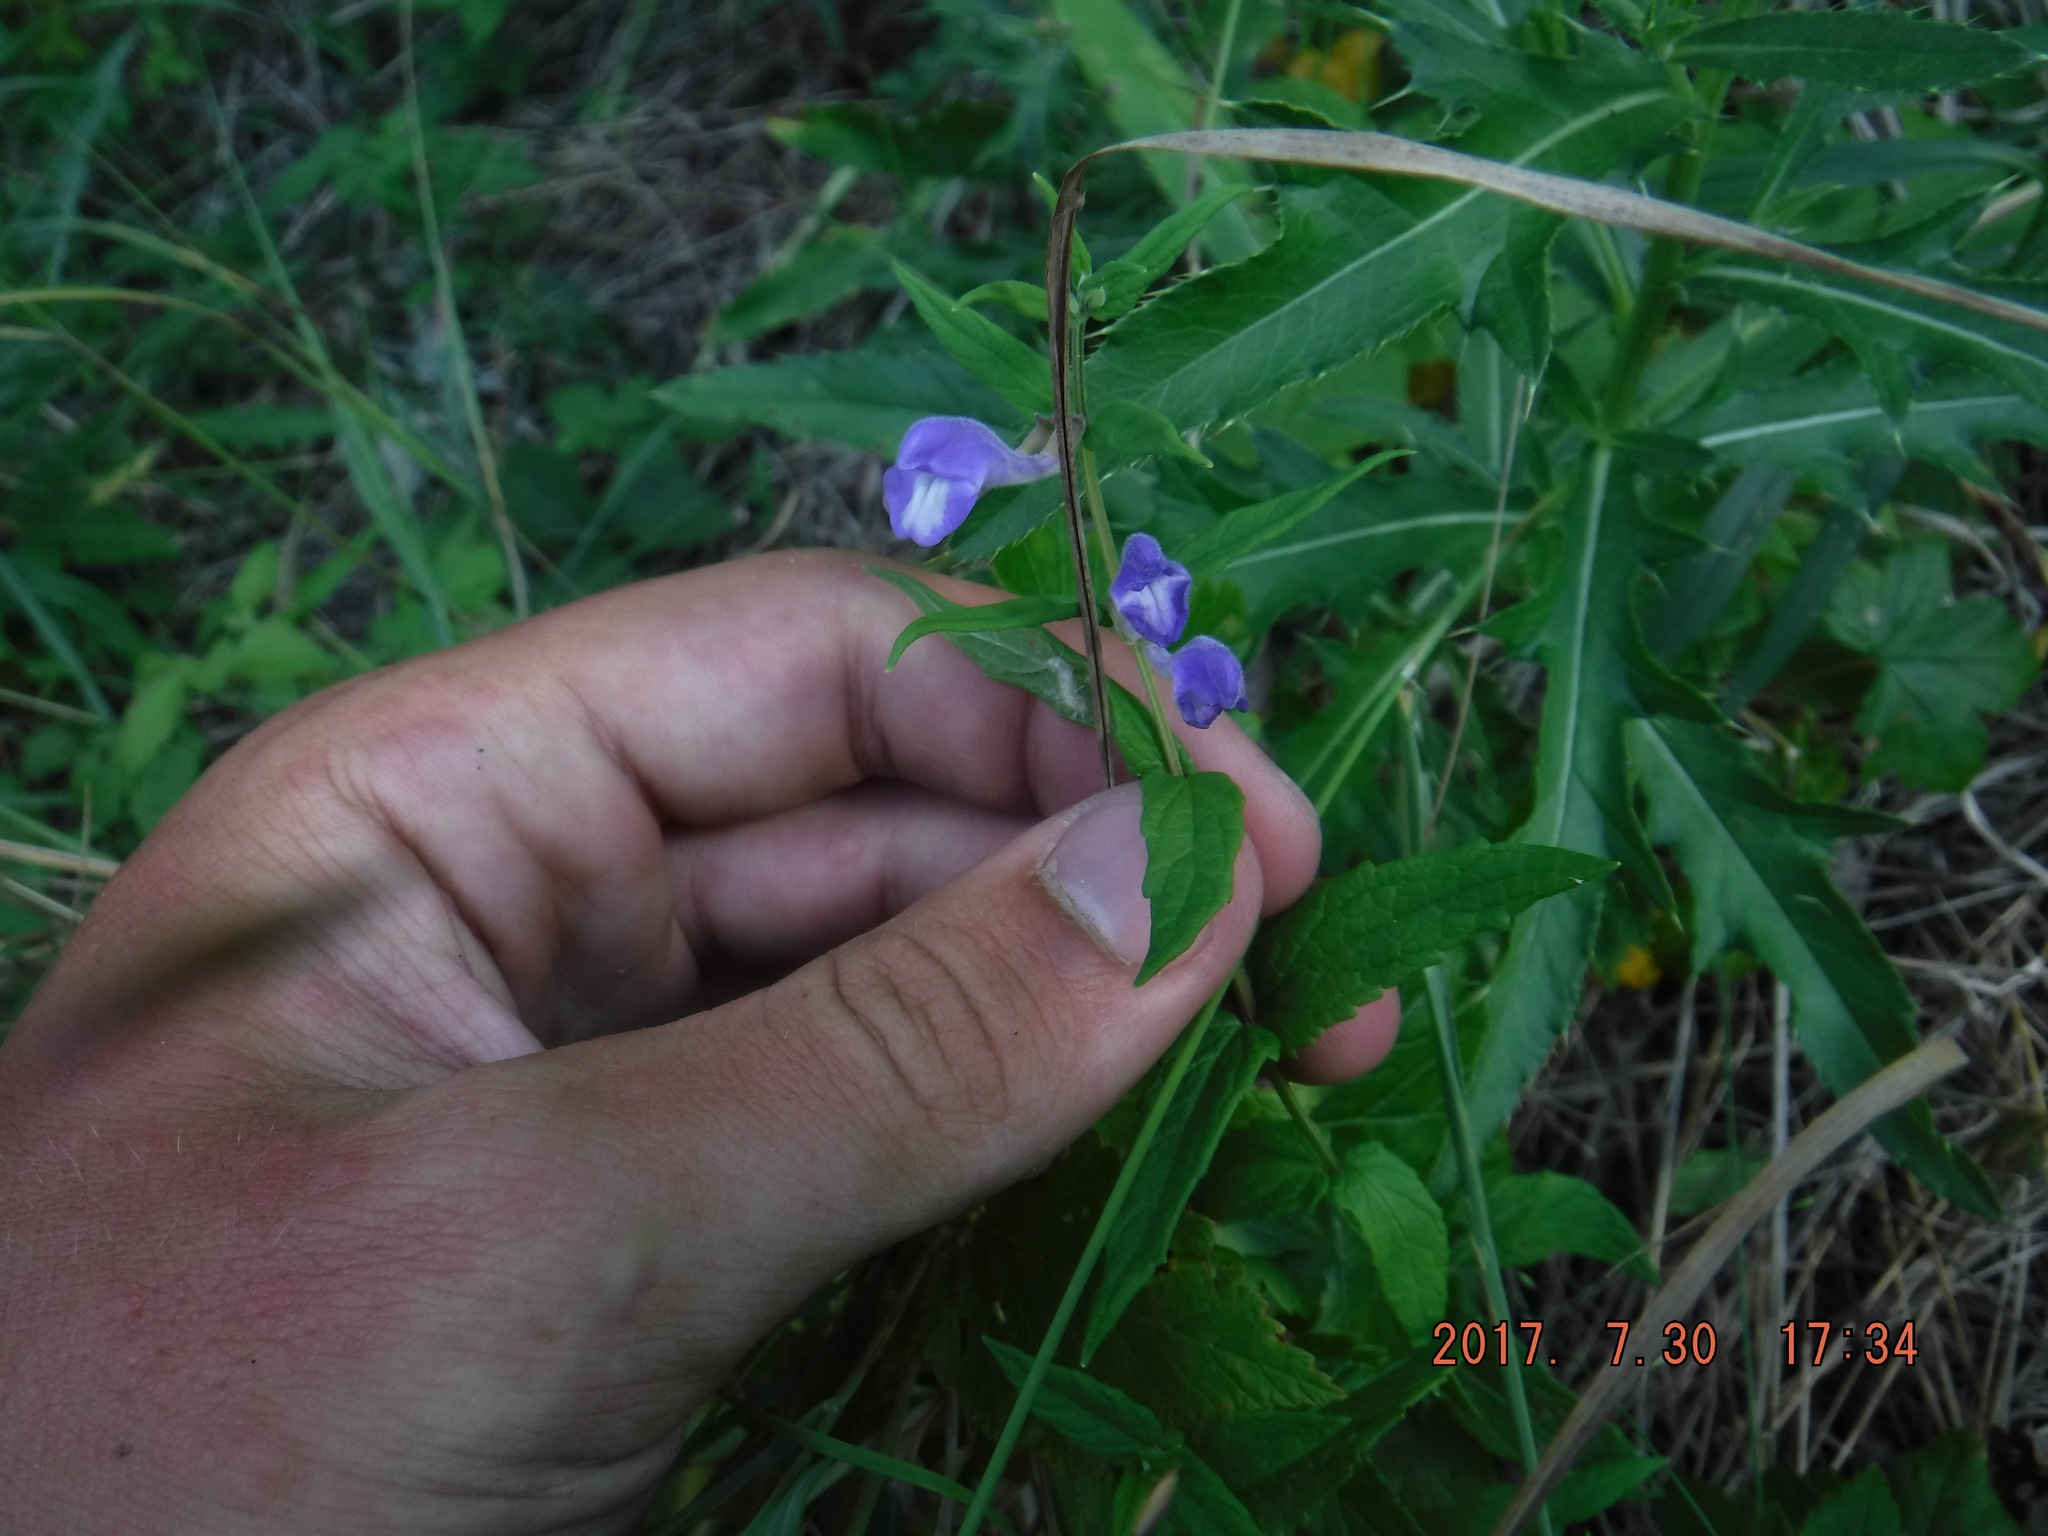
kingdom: Plantae
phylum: Tracheophyta
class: Magnoliopsida
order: Lamiales
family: Lamiaceae
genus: Scutellaria
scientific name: Scutellaria galericulata
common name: Skullcap
